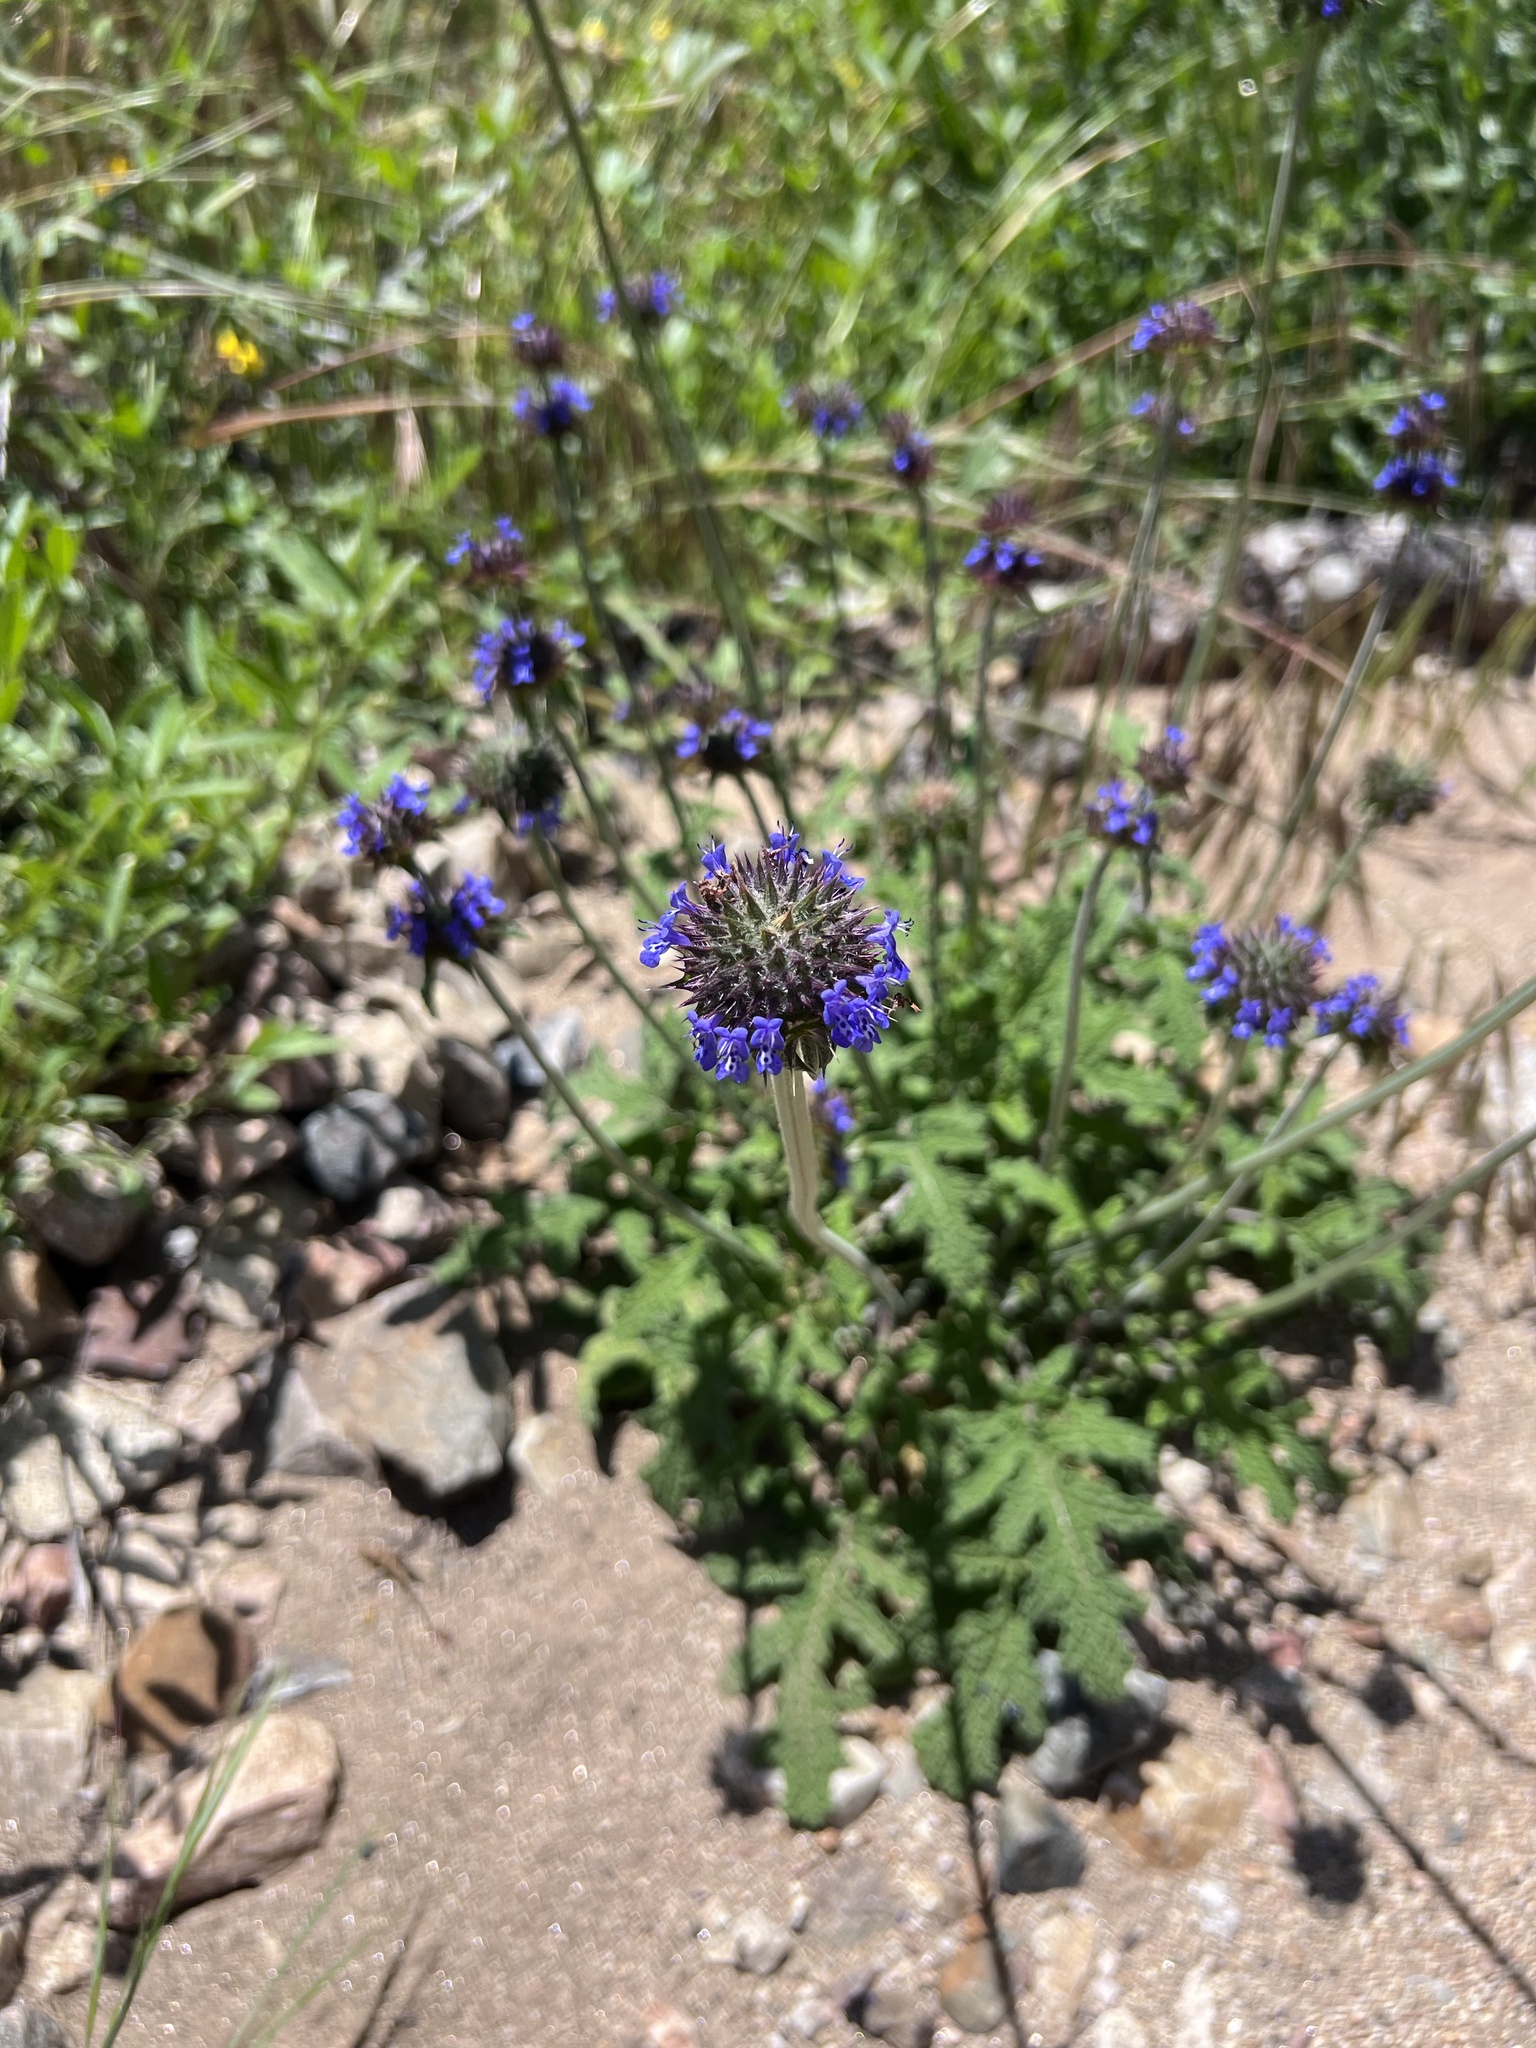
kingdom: Plantae
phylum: Tracheophyta
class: Magnoliopsida
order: Lamiales
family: Lamiaceae
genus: Salvia
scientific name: Salvia columbariae
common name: Chia
